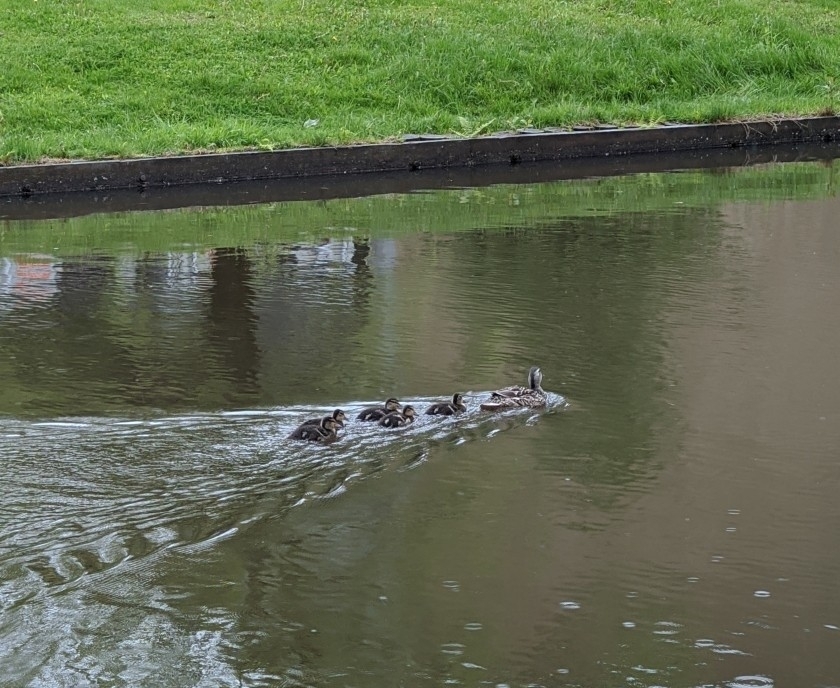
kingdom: Animalia
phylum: Chordata
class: Aves
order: Anseriformes
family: Anatidae
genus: Anas
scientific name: Anas platyrhynchos
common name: Mallard
